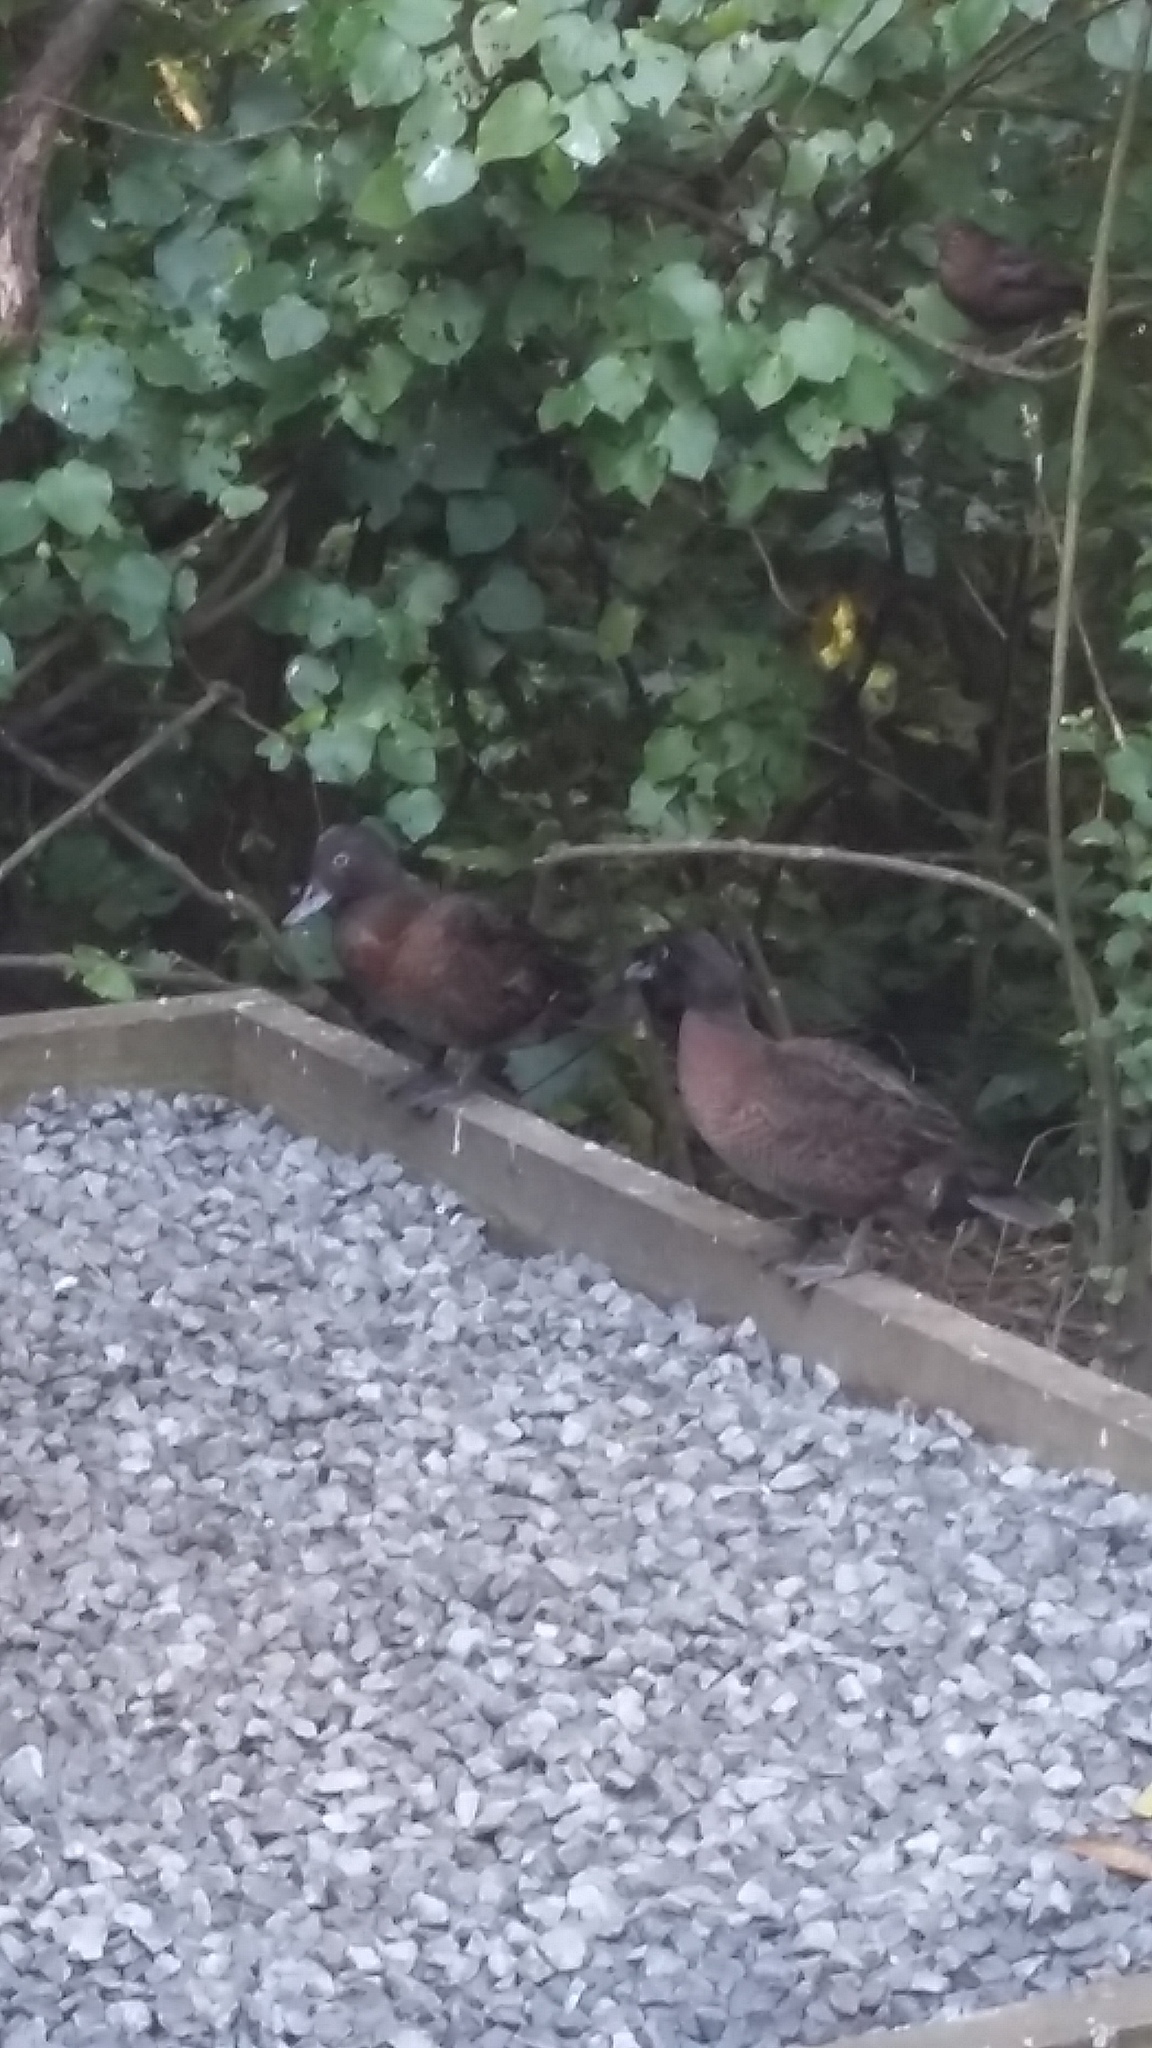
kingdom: Animalia
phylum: Chordata
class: Aves
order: Anseriformes
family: Anatidae
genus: Anas
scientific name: Anas chlorotis
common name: Brown teal
